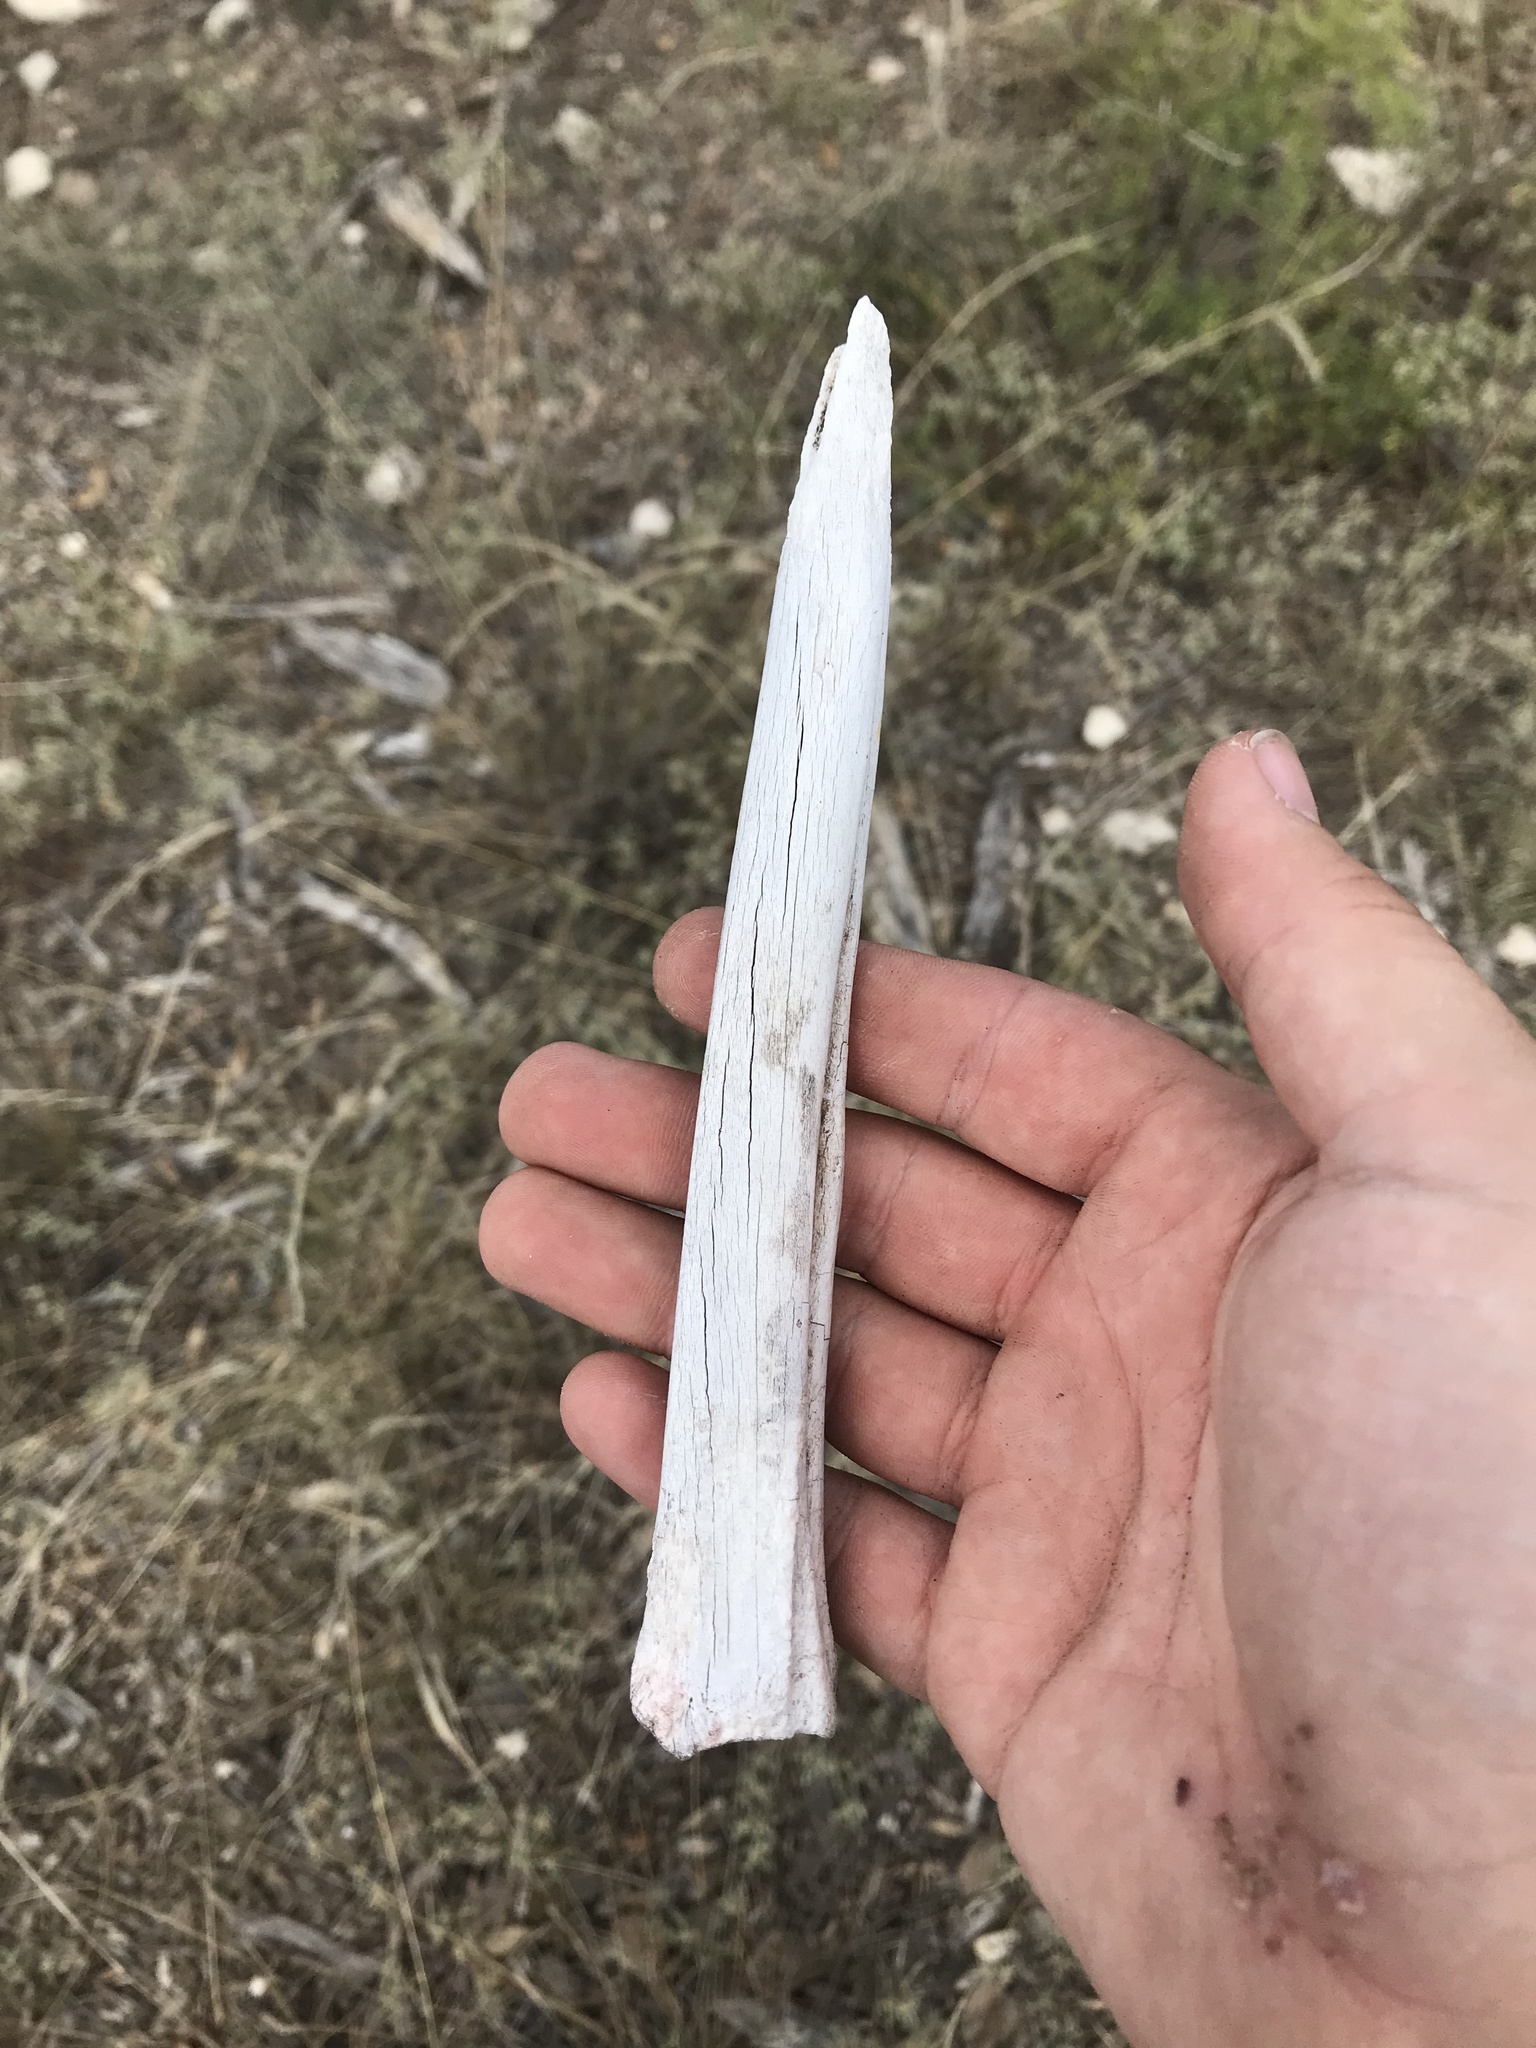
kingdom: Animalia
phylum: Chordata
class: Mammalia
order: Artiodactyla
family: Cervidae
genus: Odocoileus
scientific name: Odocoileus virginianus
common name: White-tailed deer
